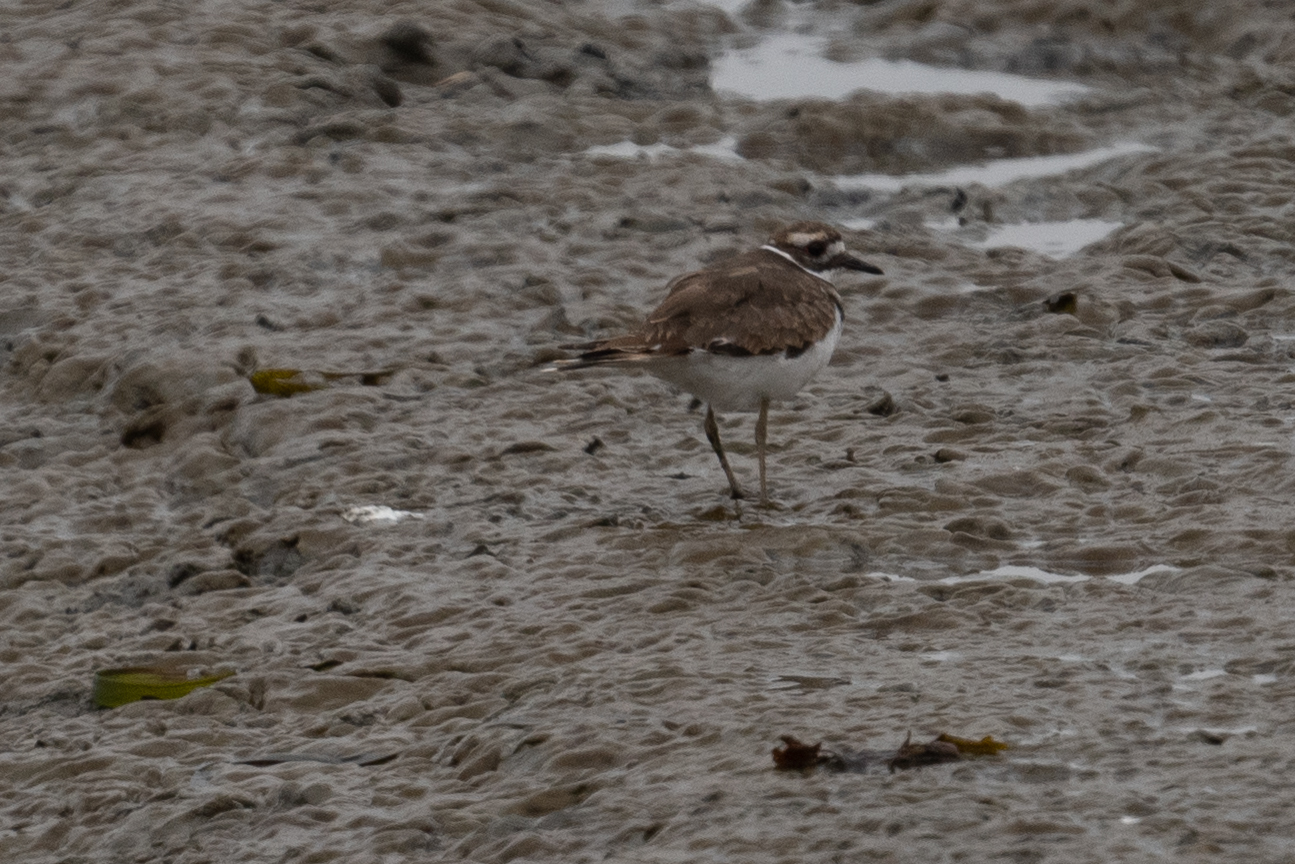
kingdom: Animalia
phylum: Chordata
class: Aves
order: Charadriiformes
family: Charadriidae
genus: Charadrius
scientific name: Charadrius vociferus
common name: Killdeer
